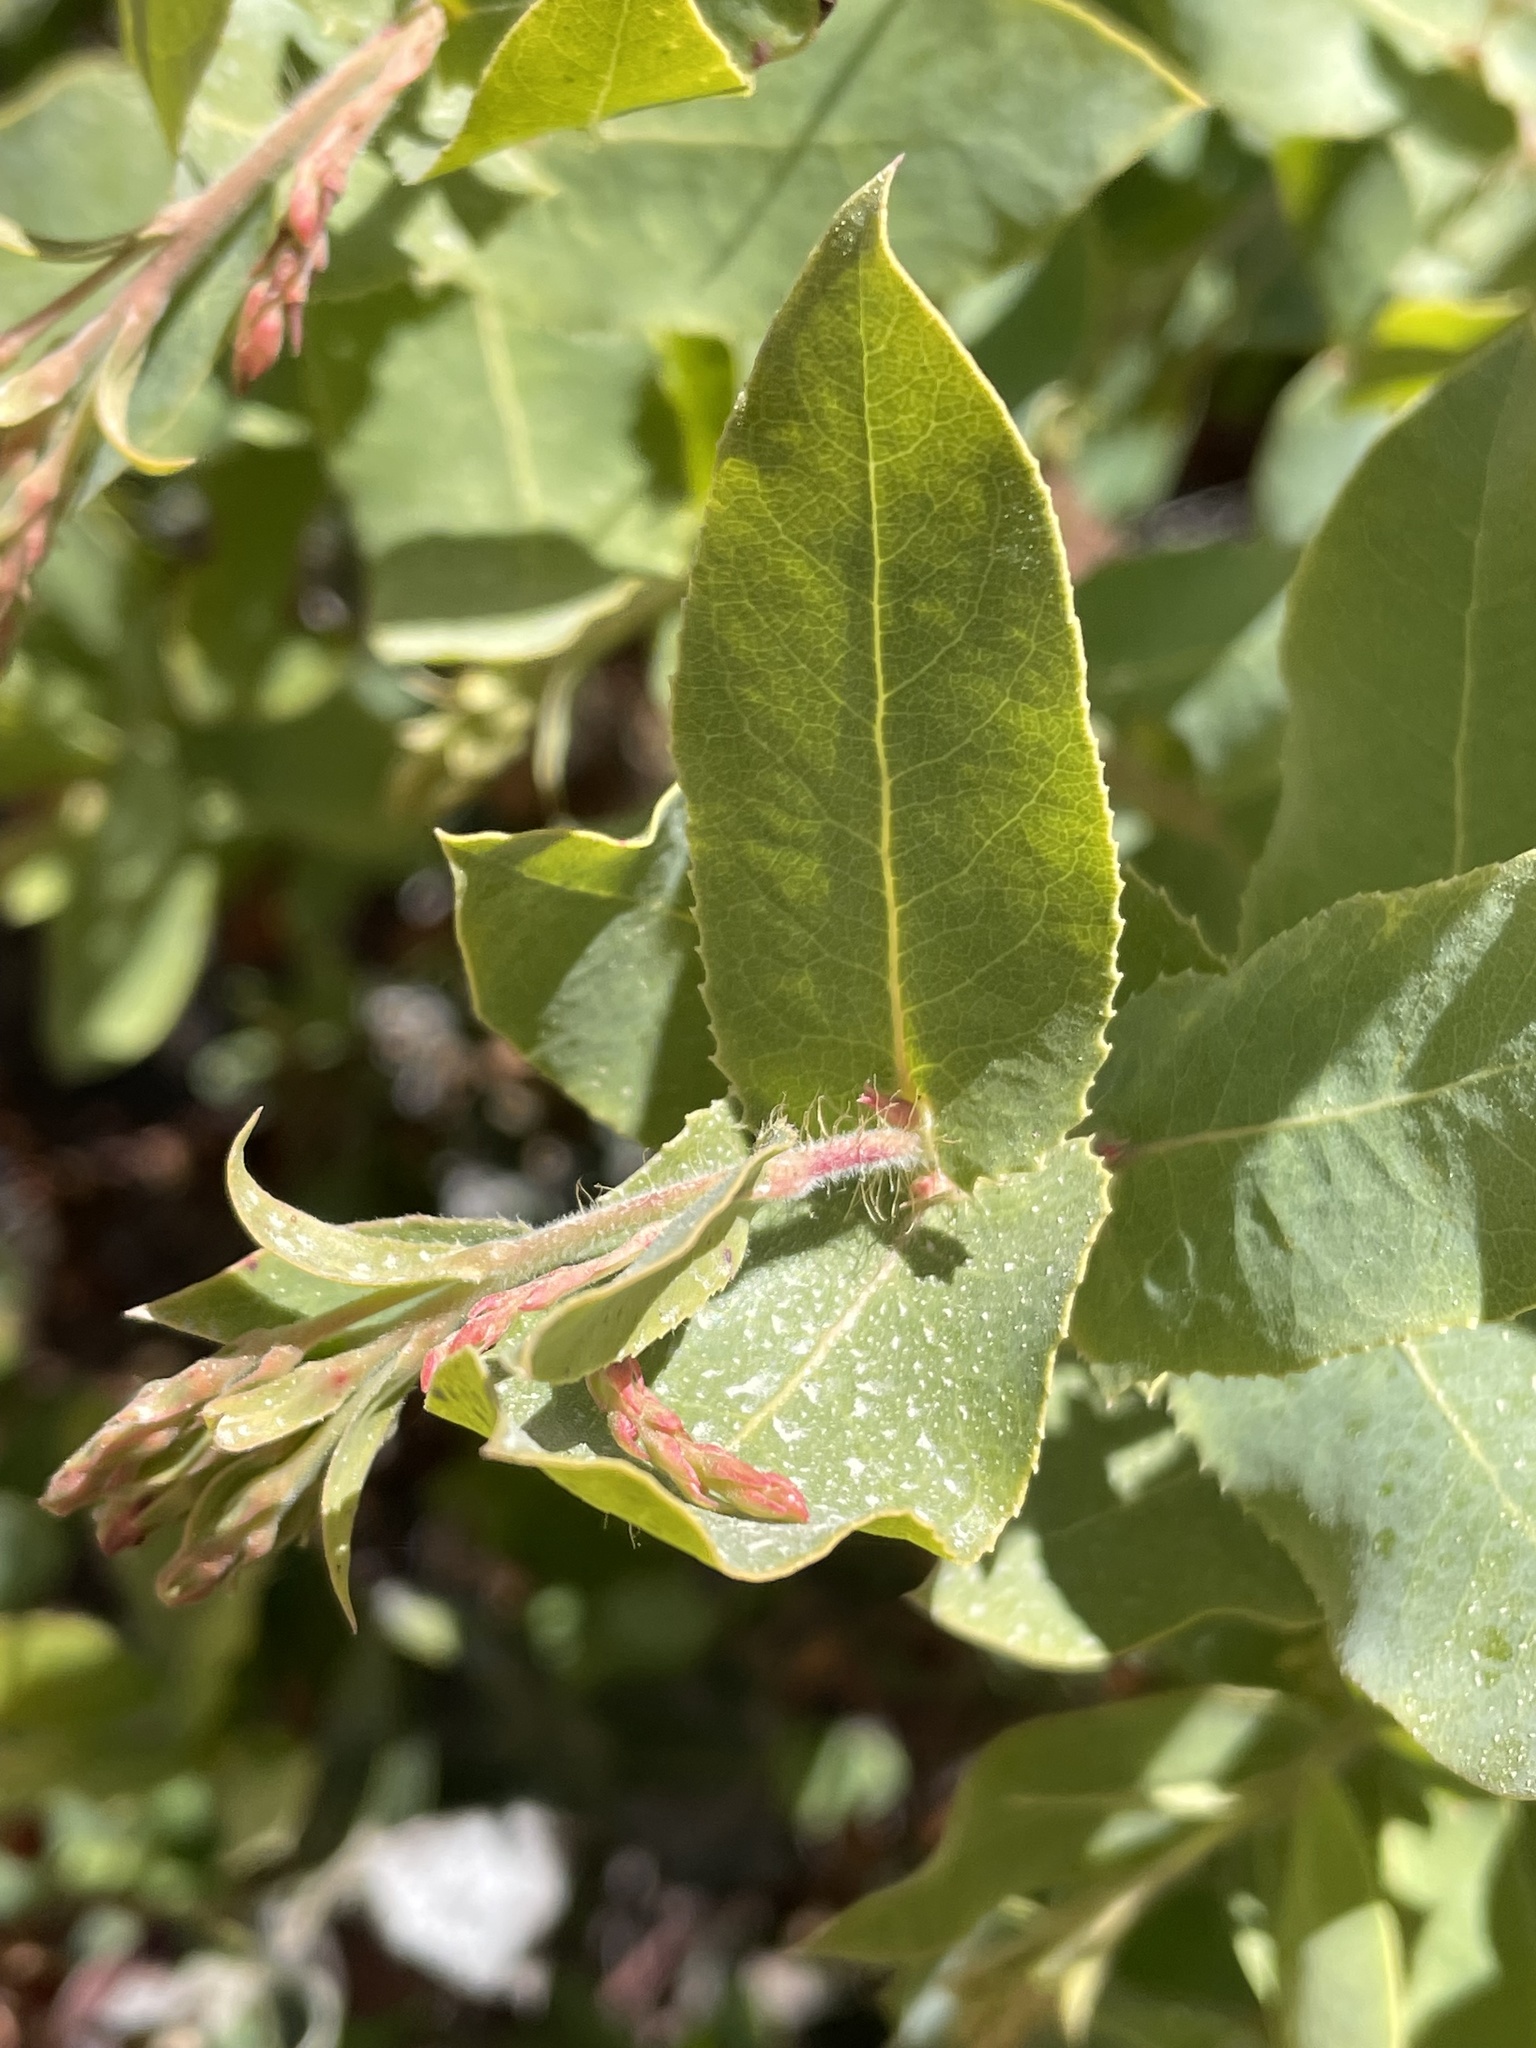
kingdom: Plantae
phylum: Tracheophyta
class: Magnoliopsida
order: Ericales
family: Ericaceae
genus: Arctostaphylos
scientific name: Arctostaphylos andersonii
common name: Santa cruz manzanita
